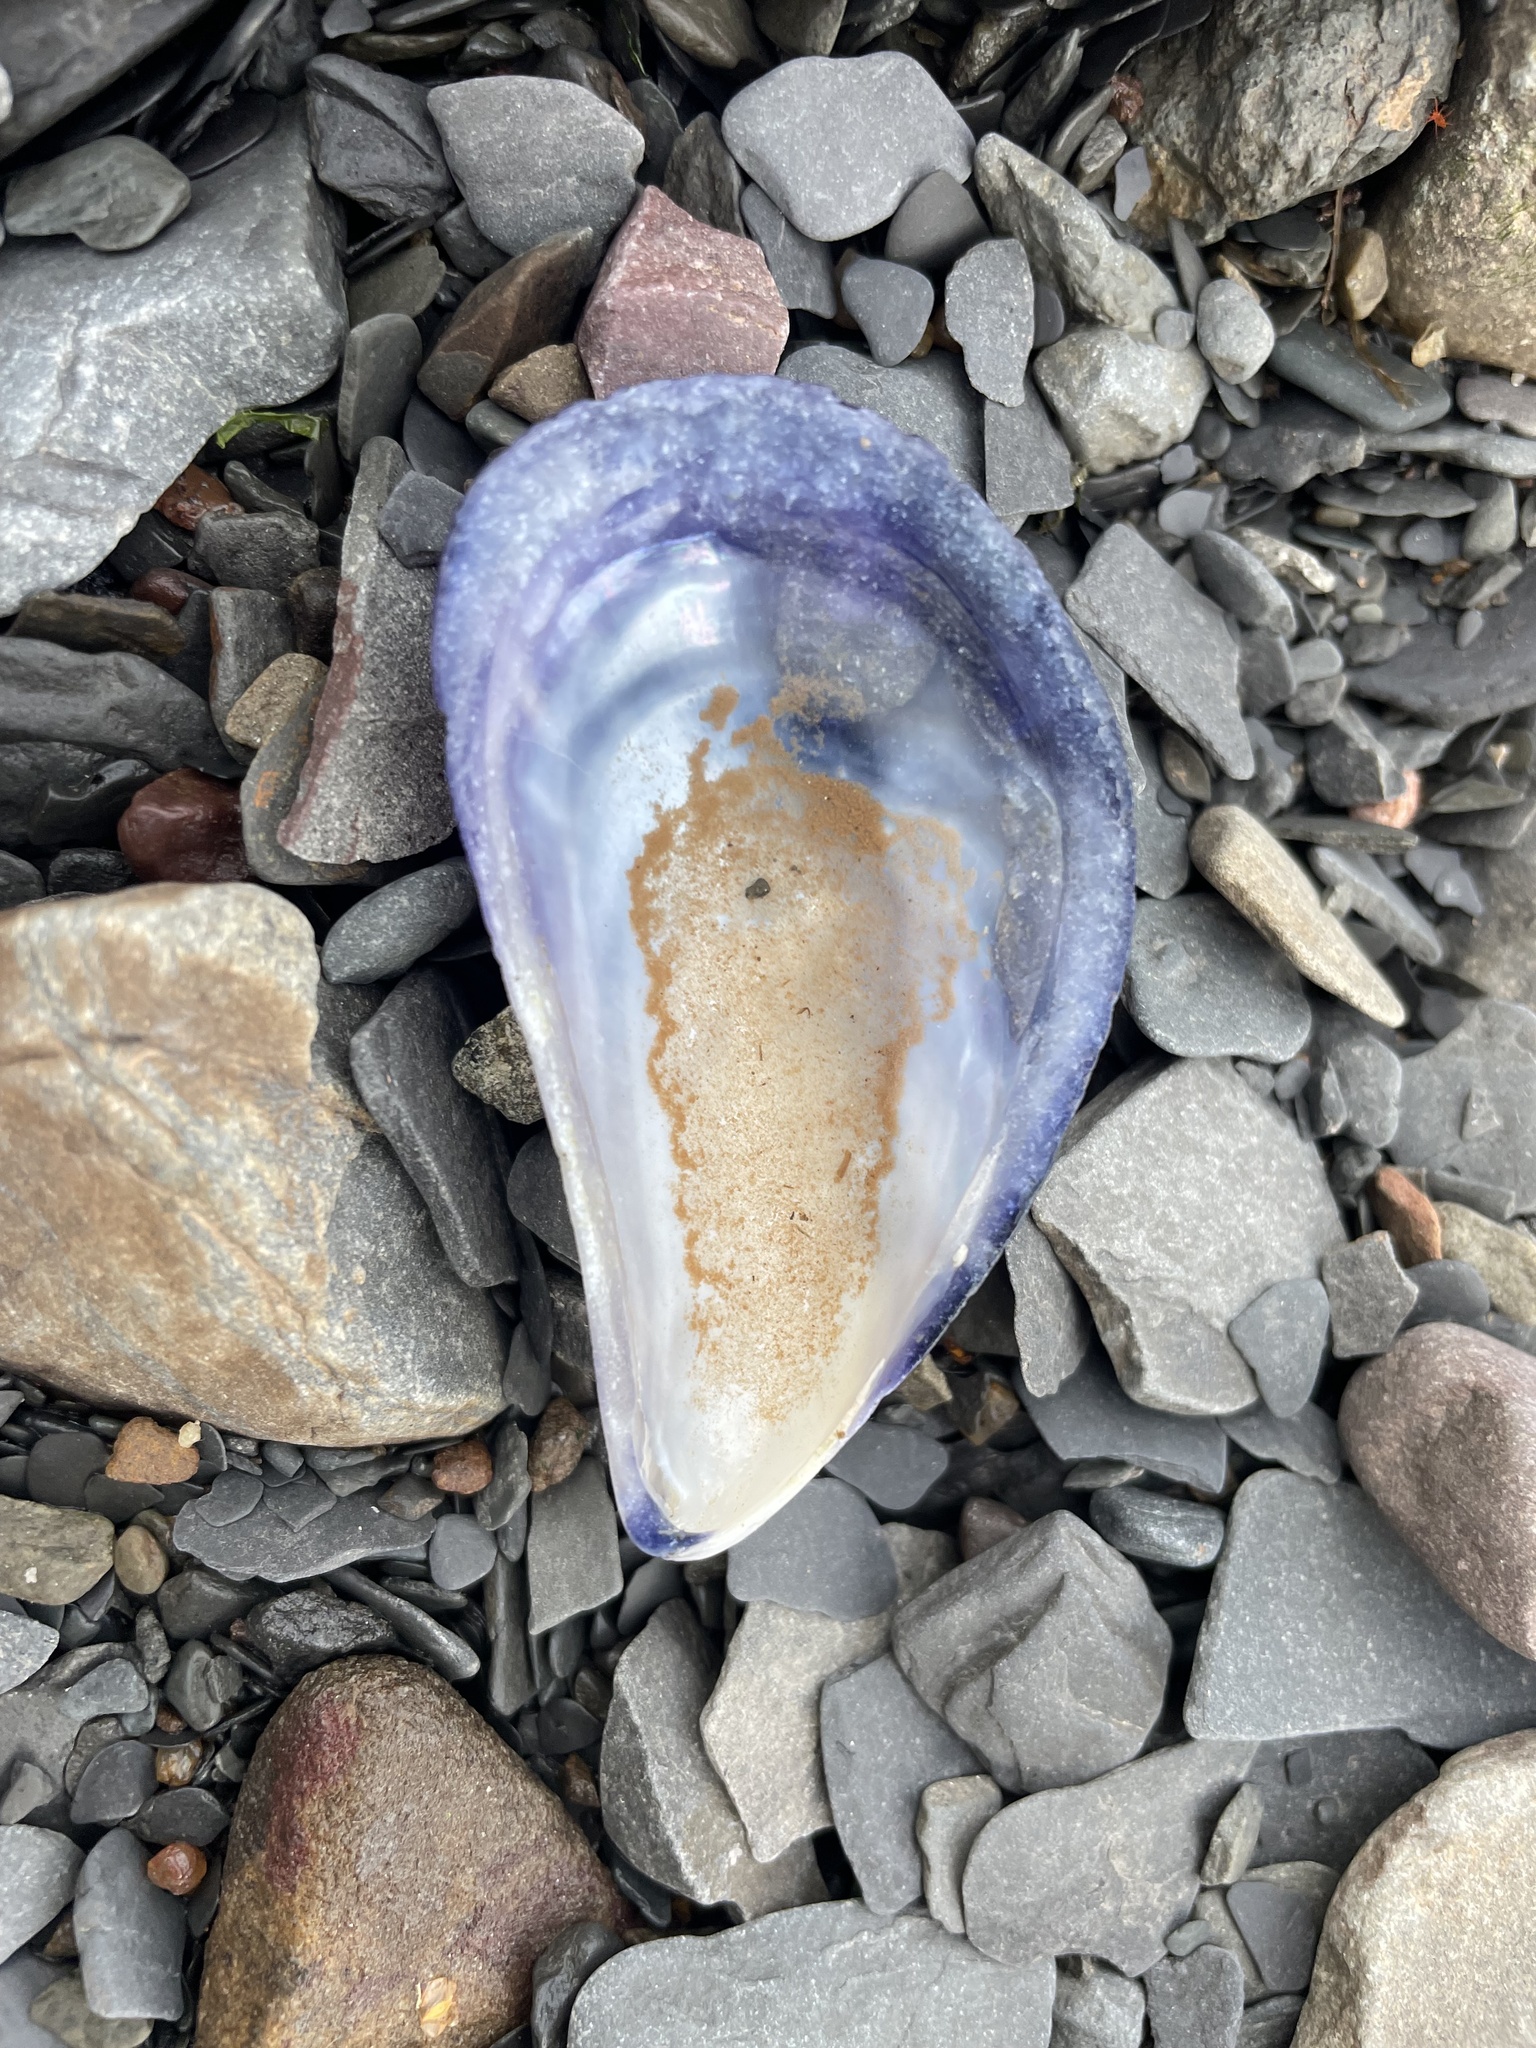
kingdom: Animalia
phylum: Mollusca
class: Bivalvia
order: Mytilida
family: Mytilidae
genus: Mytilus
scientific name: Mytilus
